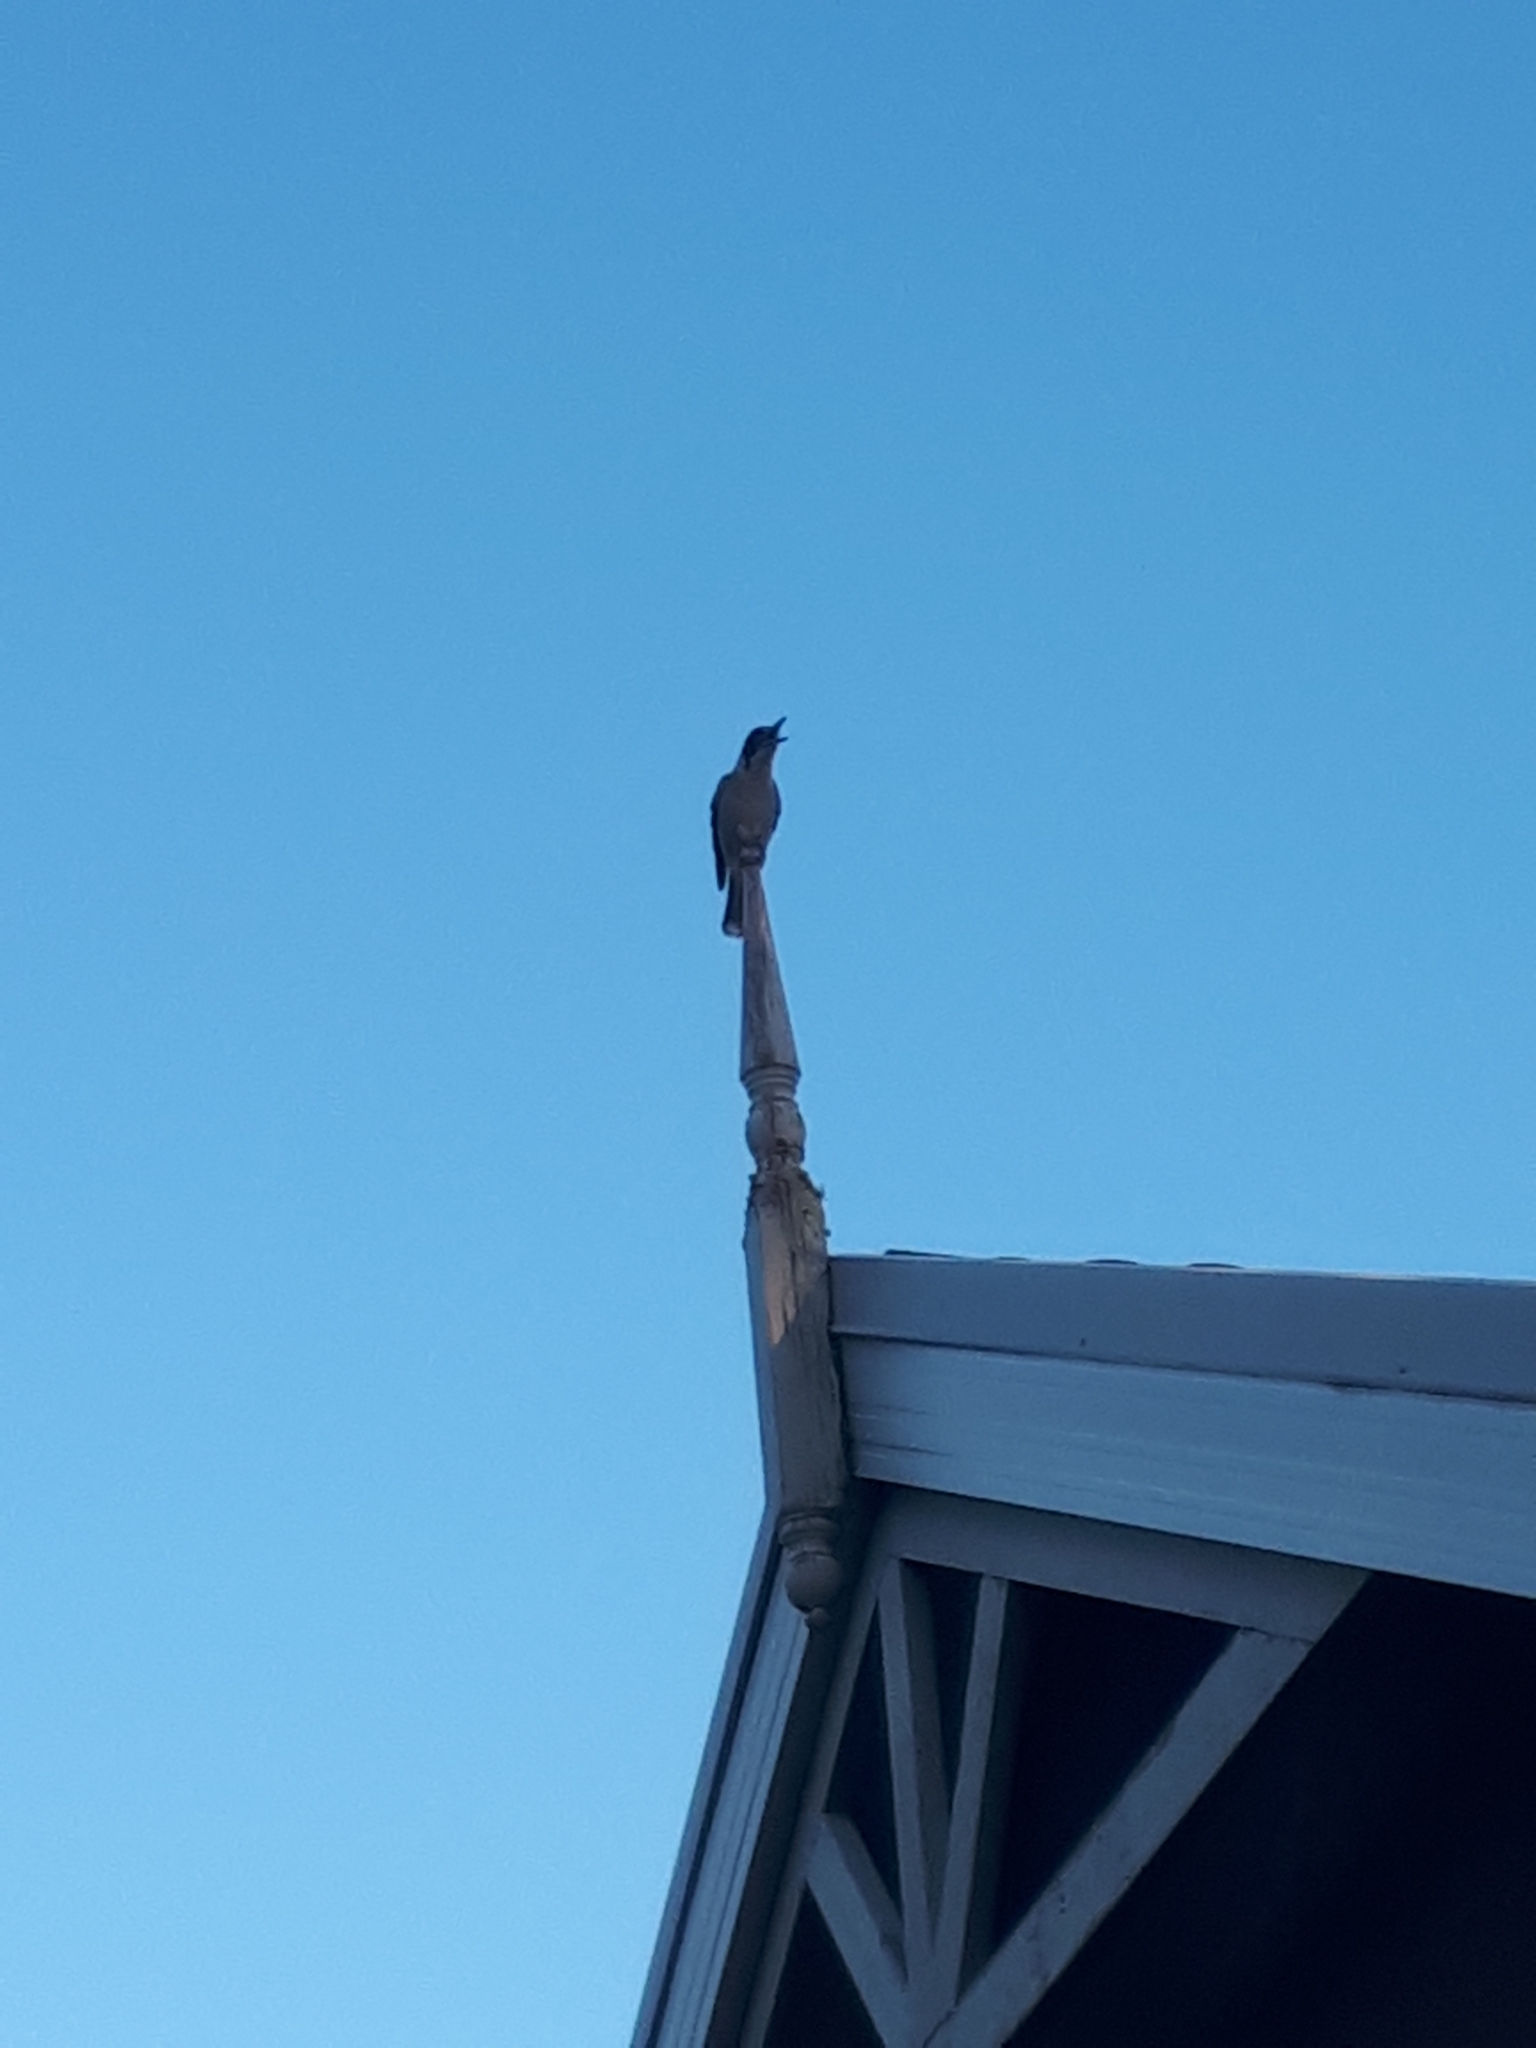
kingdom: Animalia
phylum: Chordata
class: Aves
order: Passeriformes
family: Cracticidae
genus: Cracticus
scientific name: Cracticus torquatus
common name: Grey butcherbird
